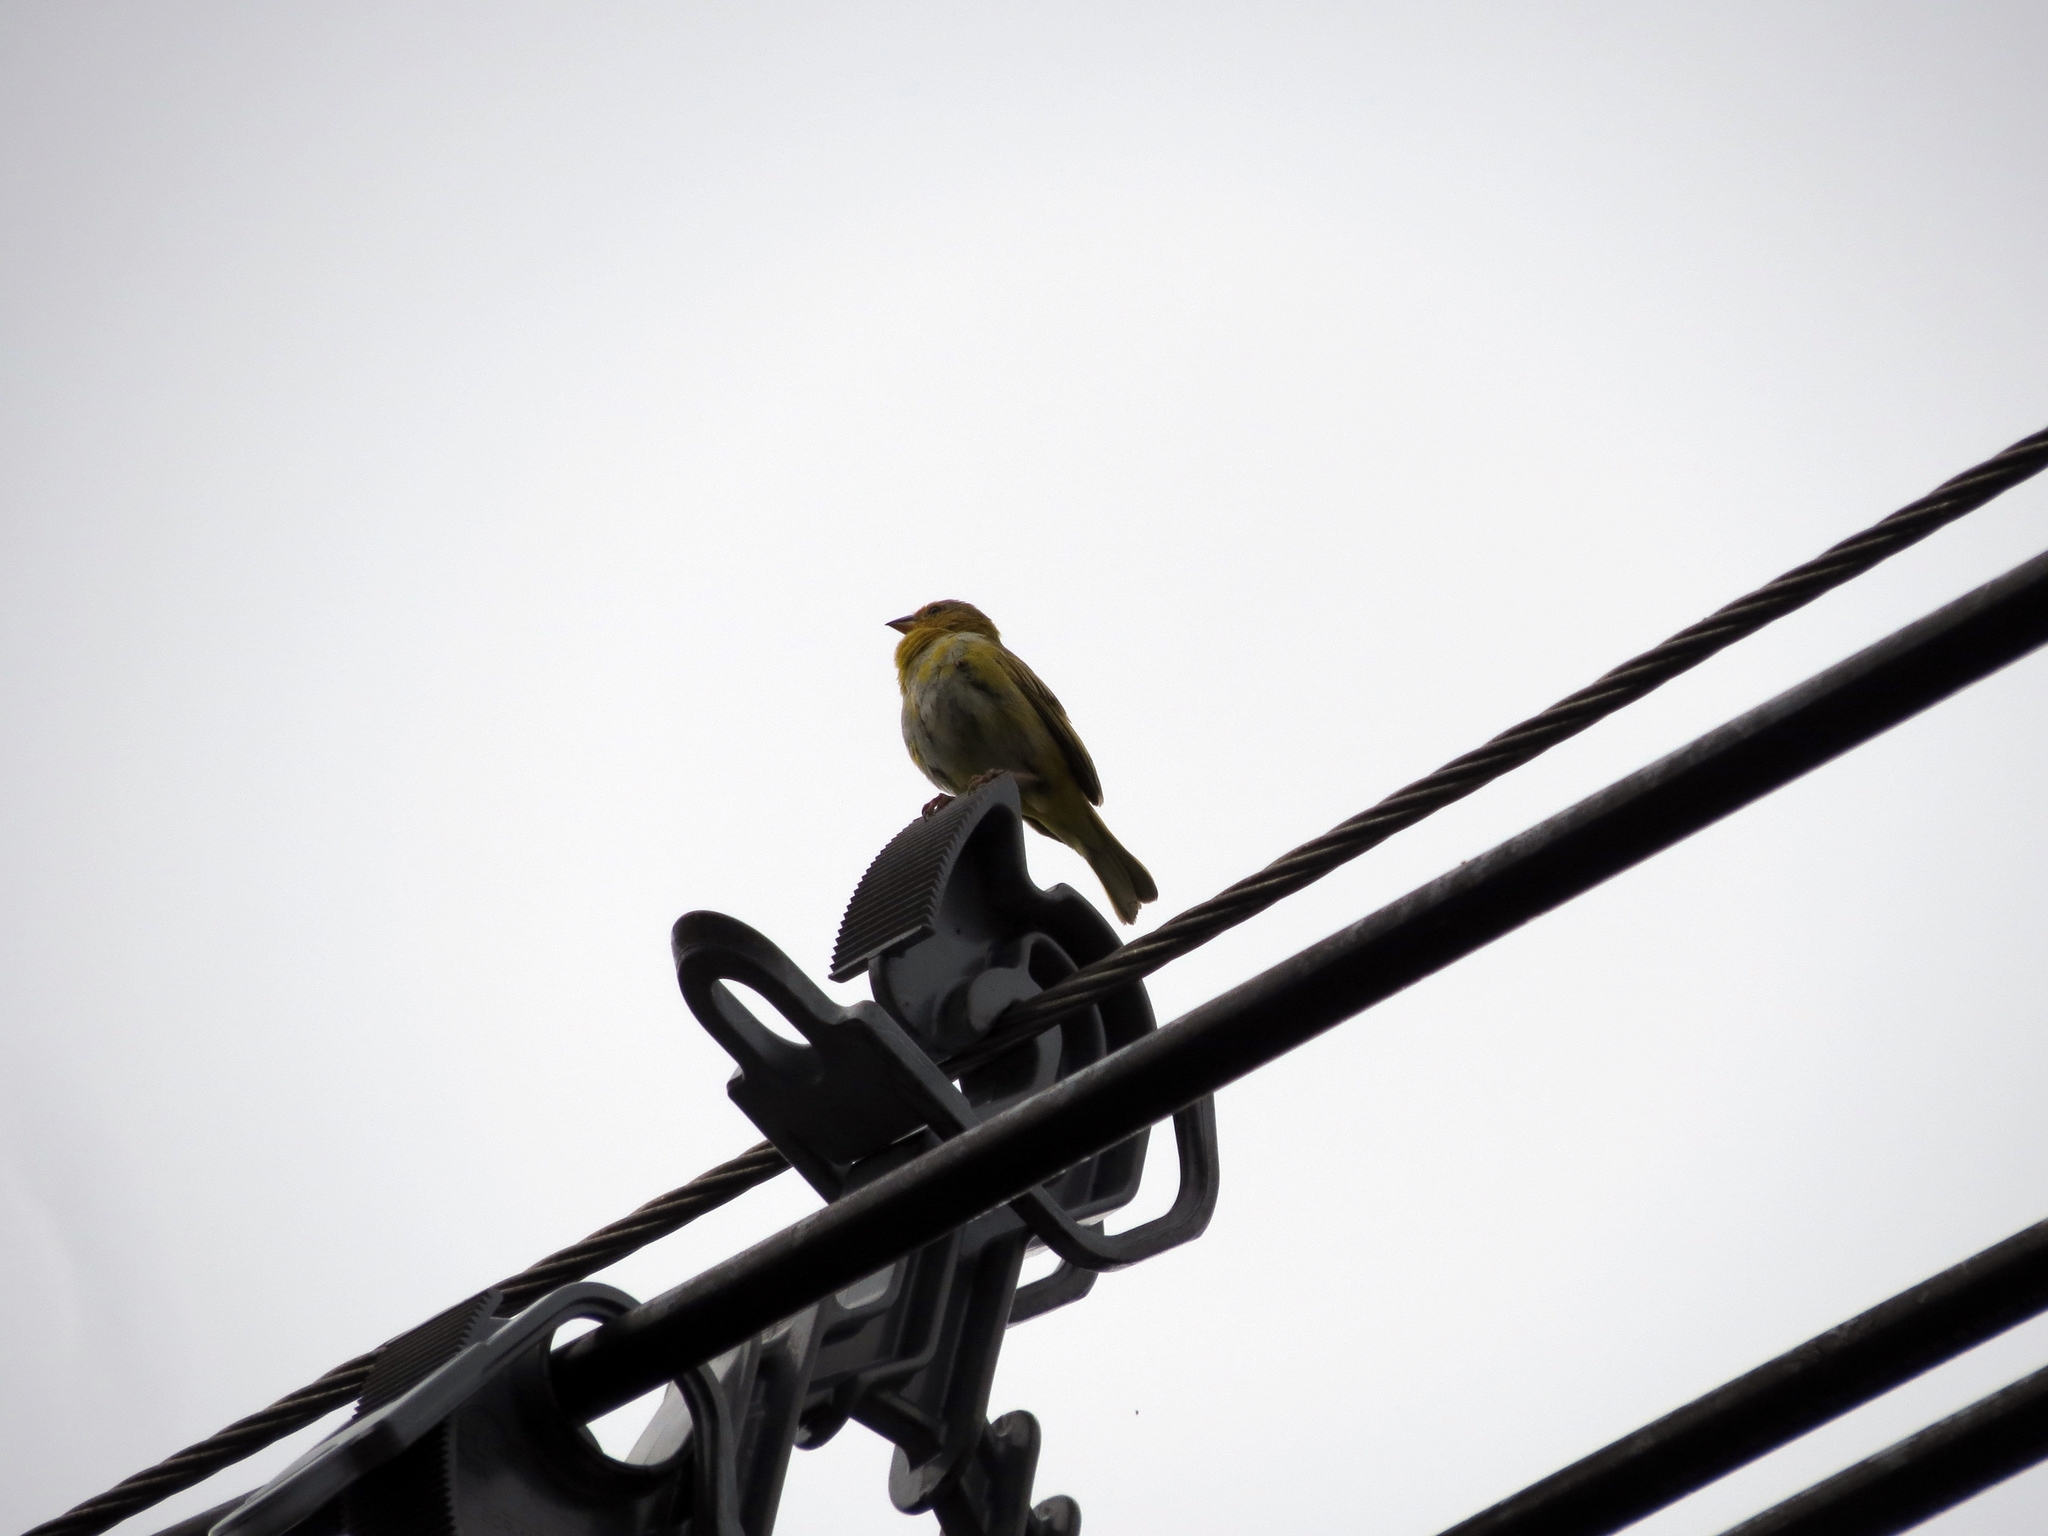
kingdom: Animalia
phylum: Chordata
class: Aves
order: Passeriformes
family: Thraupidae
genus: Sicalis
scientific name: Sicalis flaveola
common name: Saffron finch
